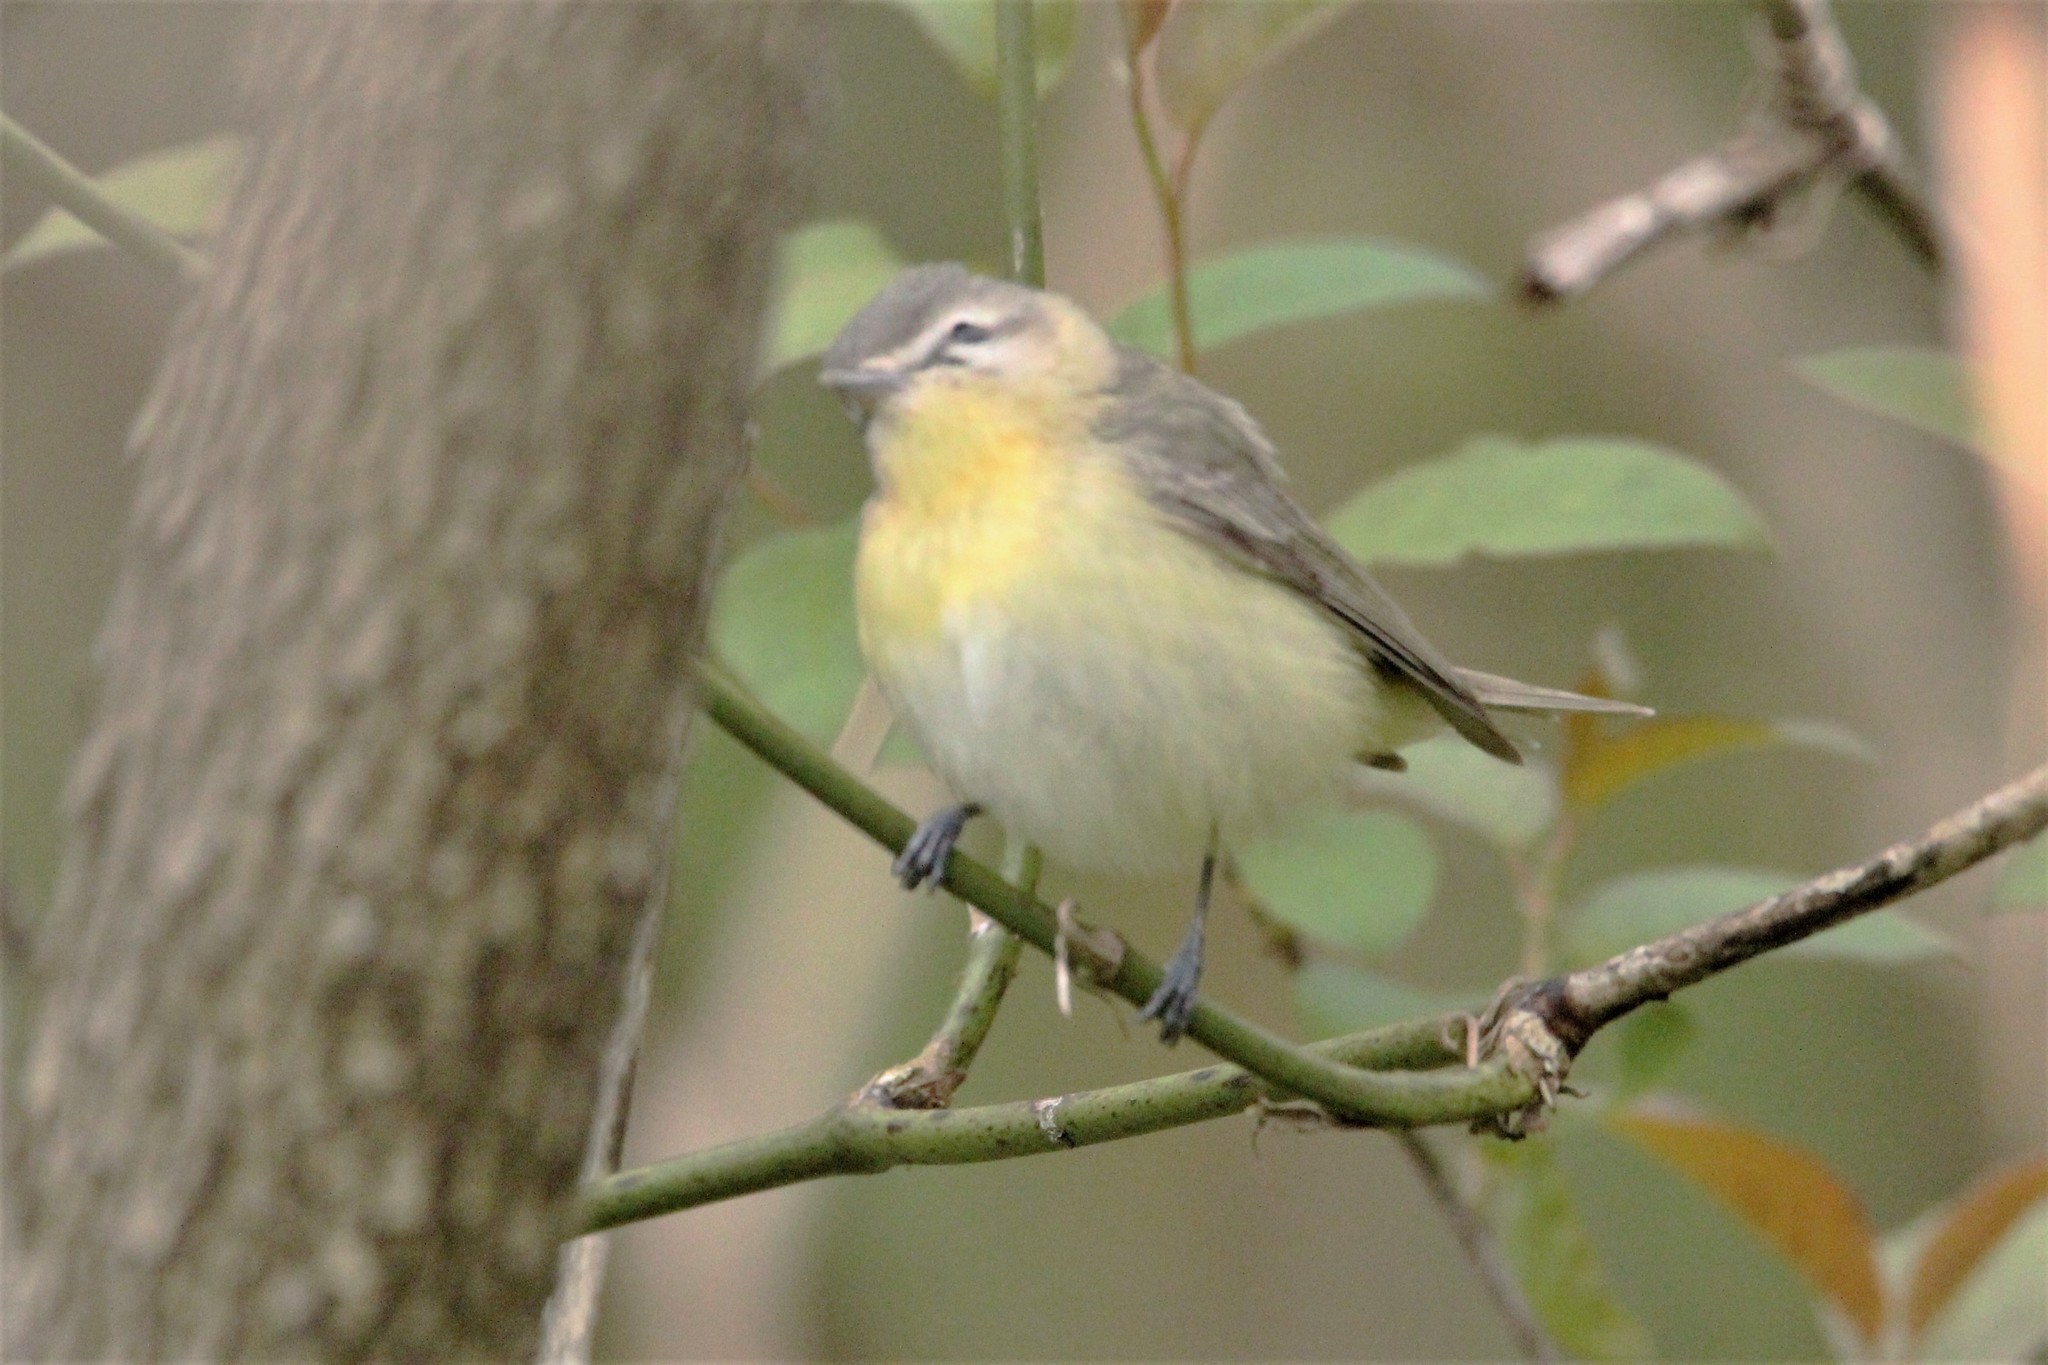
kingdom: Animalia
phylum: Chordata
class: Aves
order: Passeriformes
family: Vireonidae
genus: Vireo
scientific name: Vireo philadelphicus
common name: Philadelphia vireo
